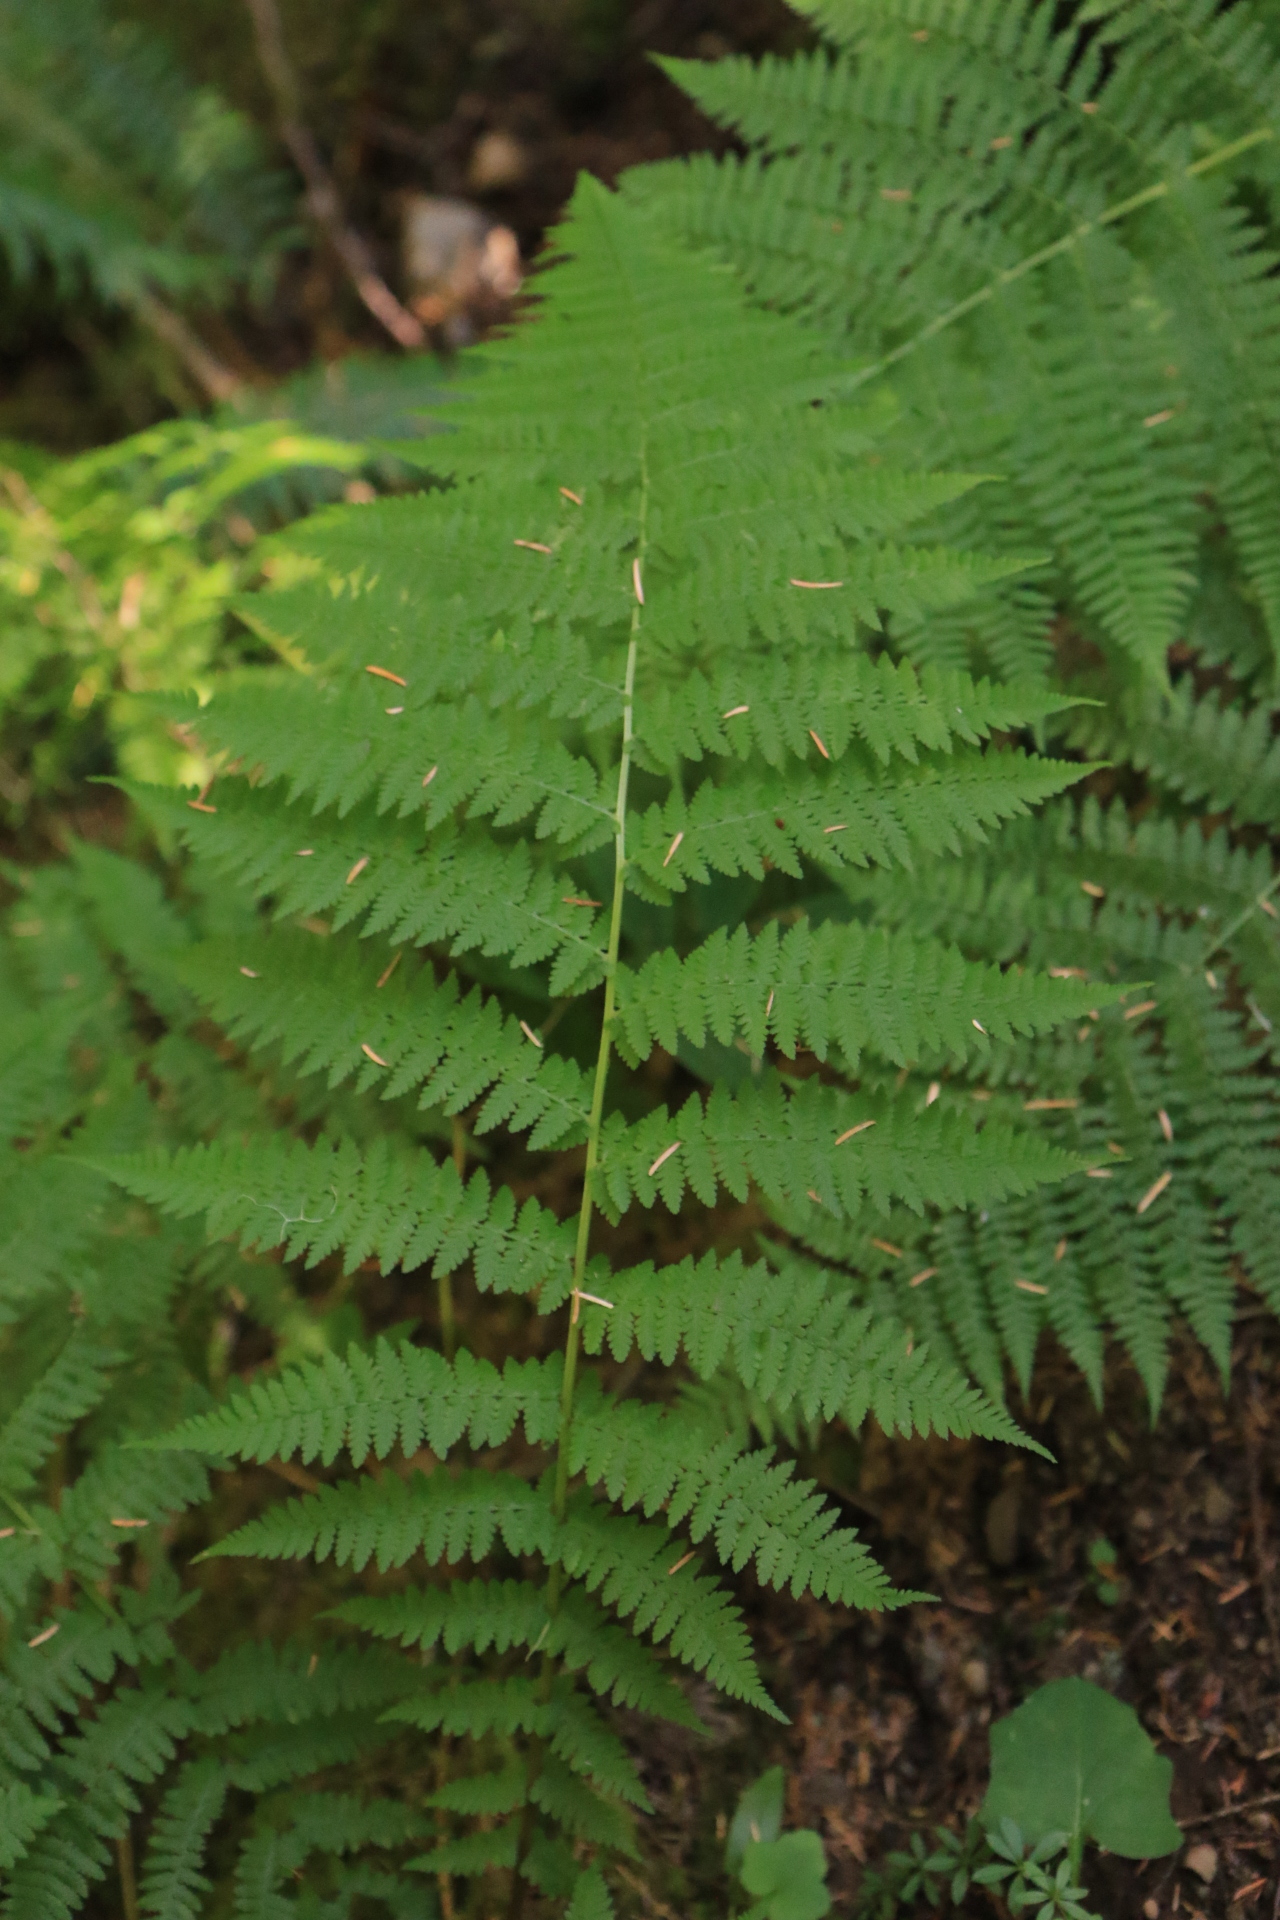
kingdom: Plantae
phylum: Tracheophyta
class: Polypodiopsida
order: Polypodiales
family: Athyriaceae
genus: Athyrium
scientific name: Athyrium filix-femina
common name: Lady fern
